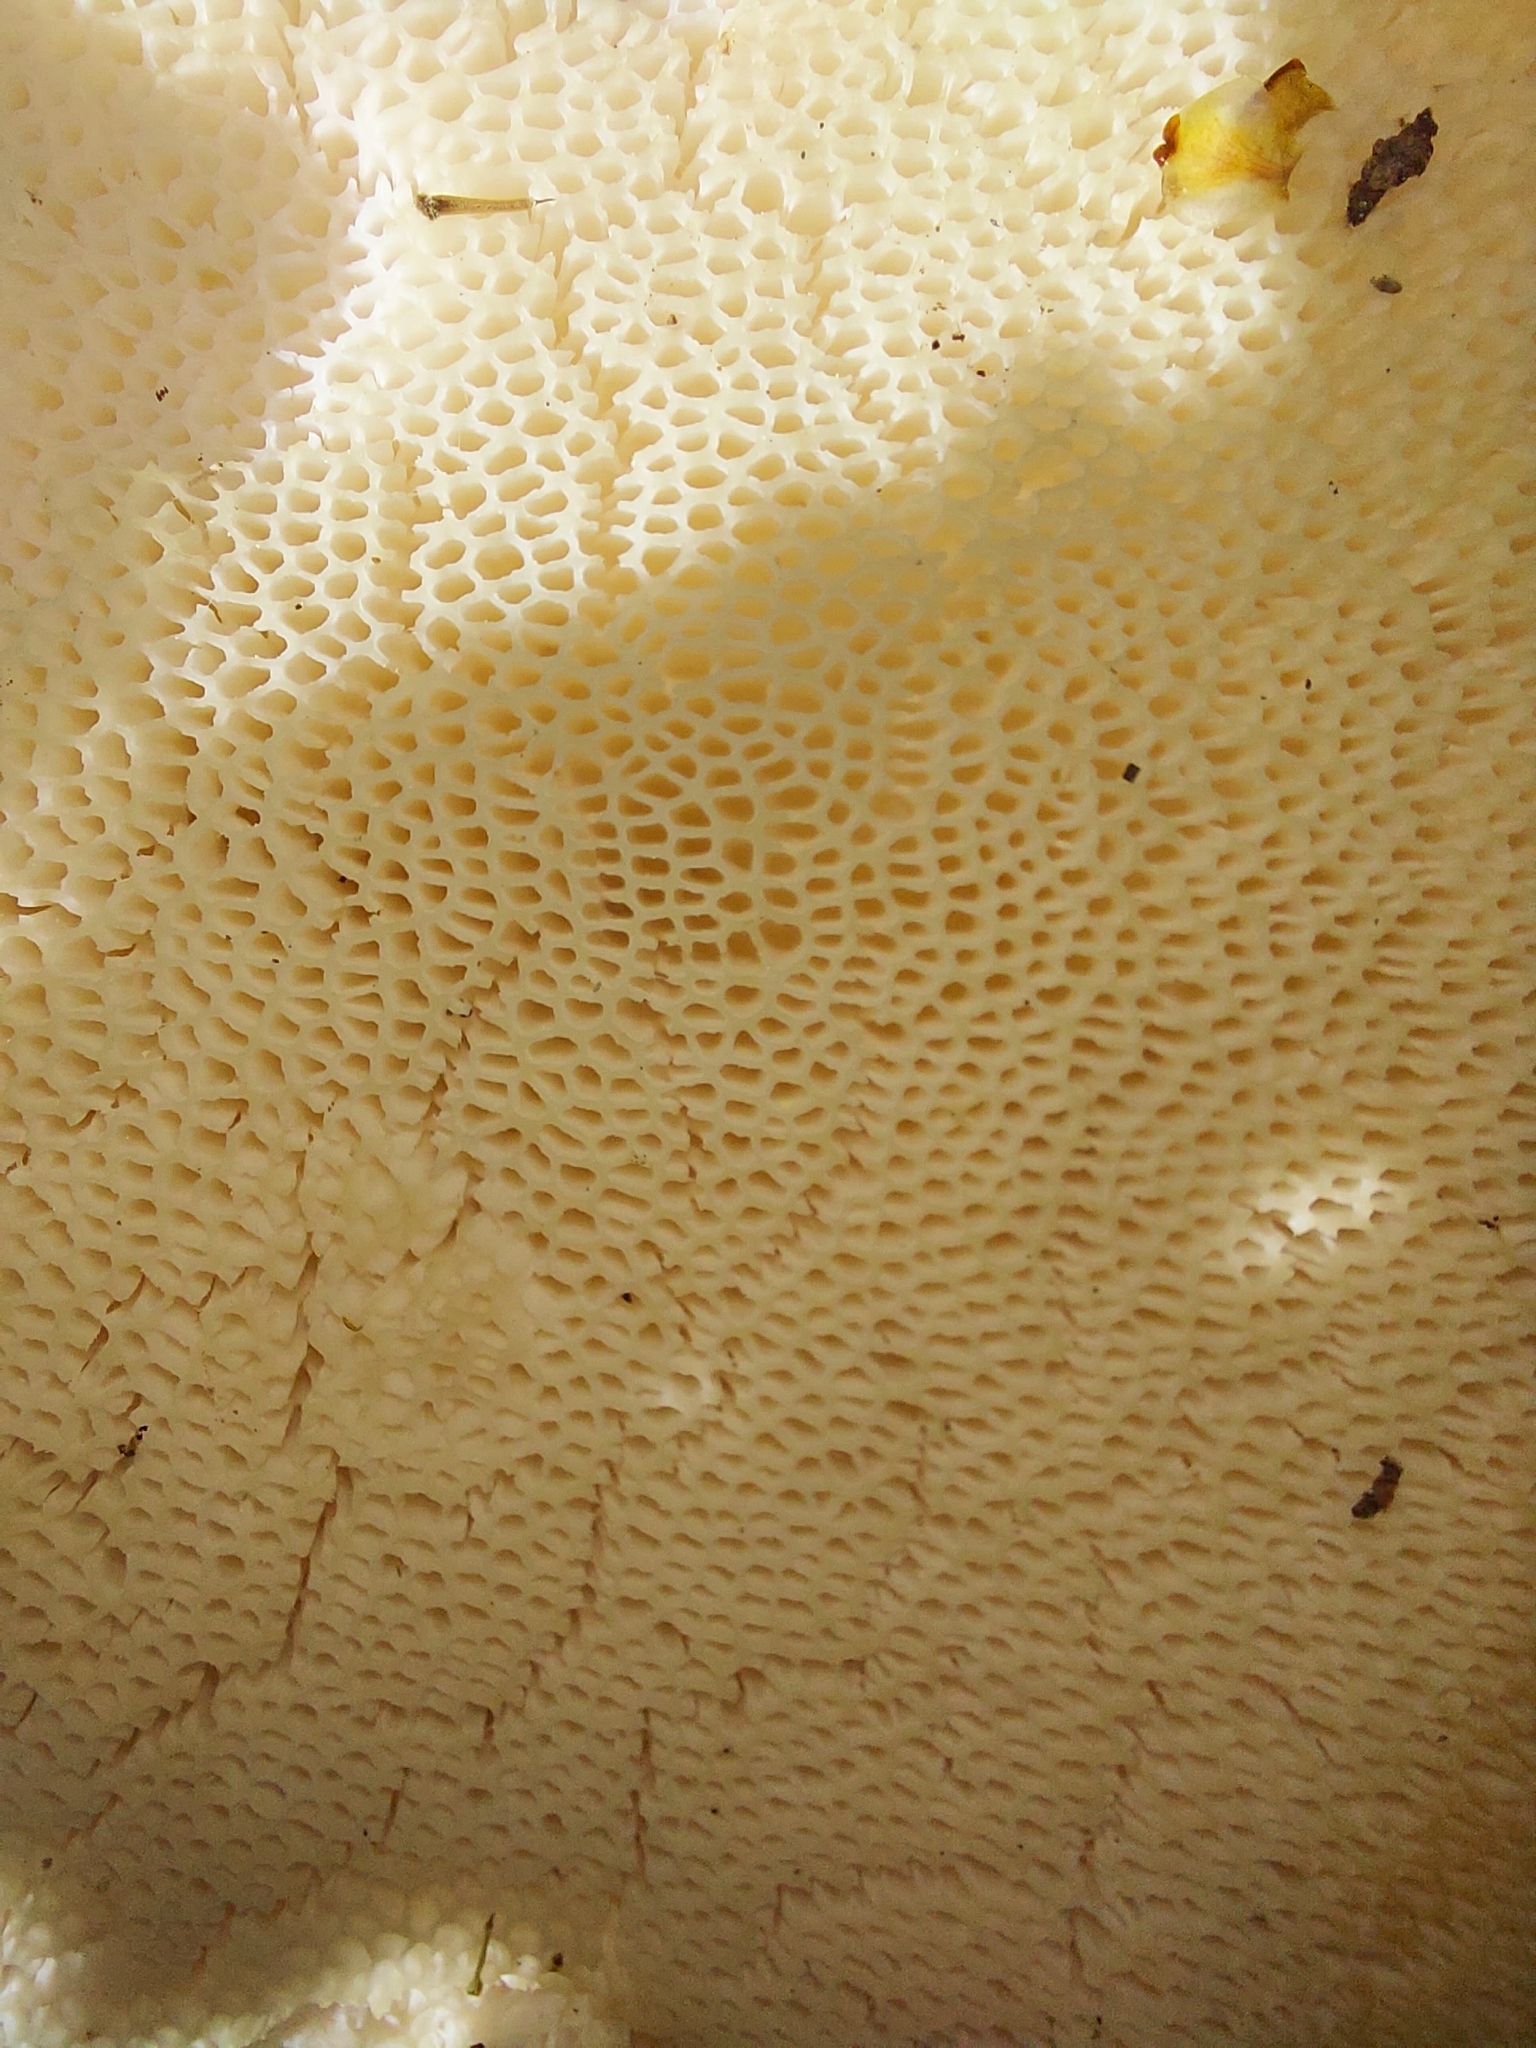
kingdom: Fungi
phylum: Basidiomycota
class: Agaricomycetes
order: Polyporales
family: Polyporaceae
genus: Cerioporus
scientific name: Cerioporus squamosus
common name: Dryad's saddle
